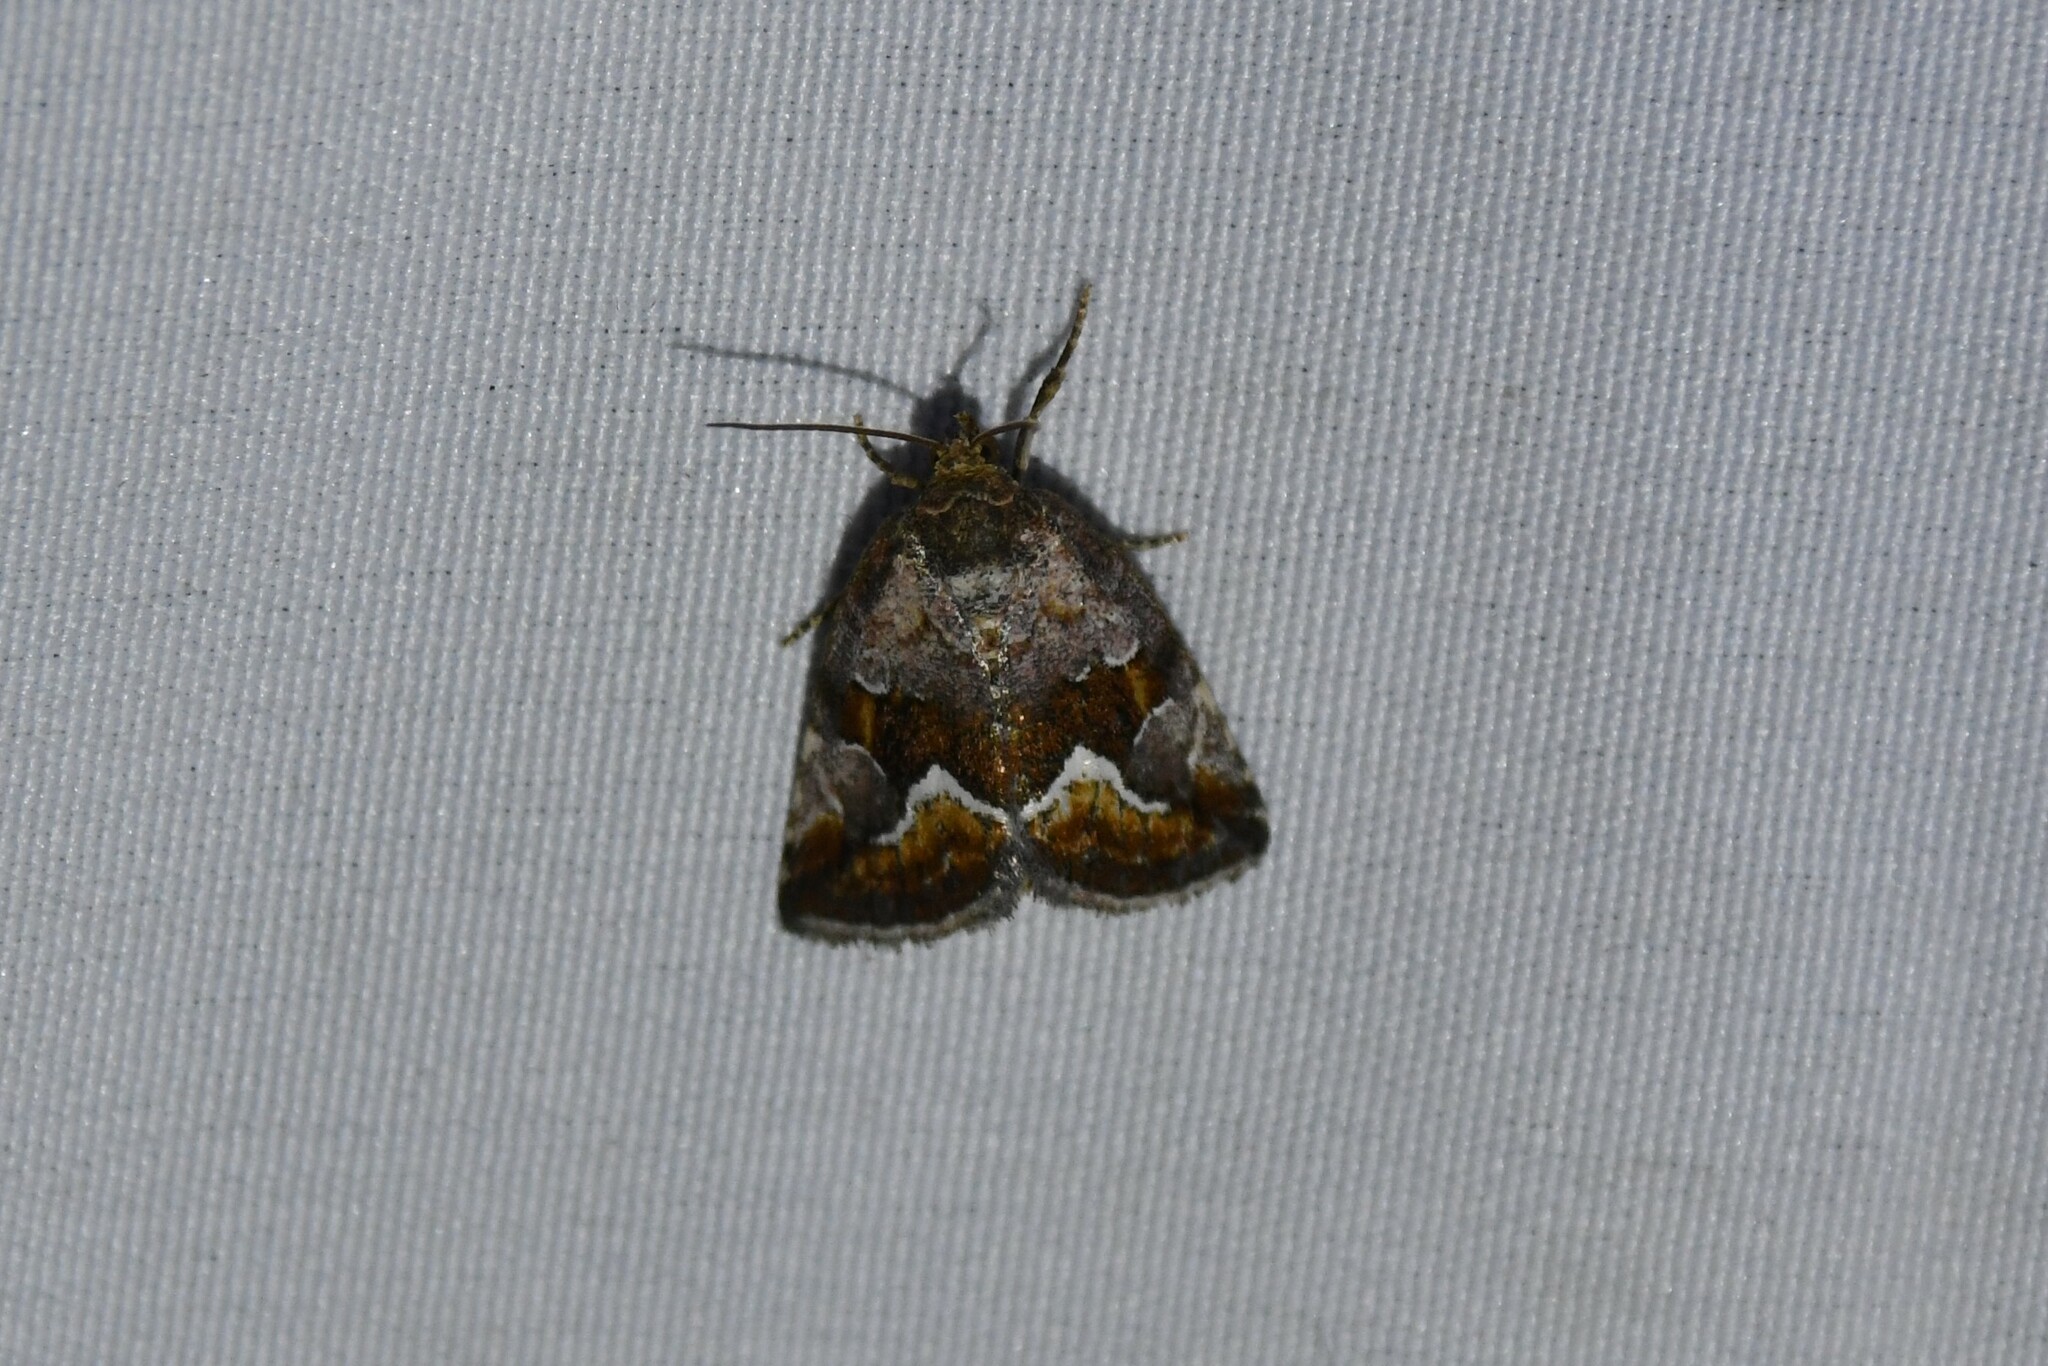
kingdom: Animalia
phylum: Arthropoda
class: Insecta
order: Lepidoptera
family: Noctuidae
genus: Deltote
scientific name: Deltote bellicula
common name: Bog glyph
